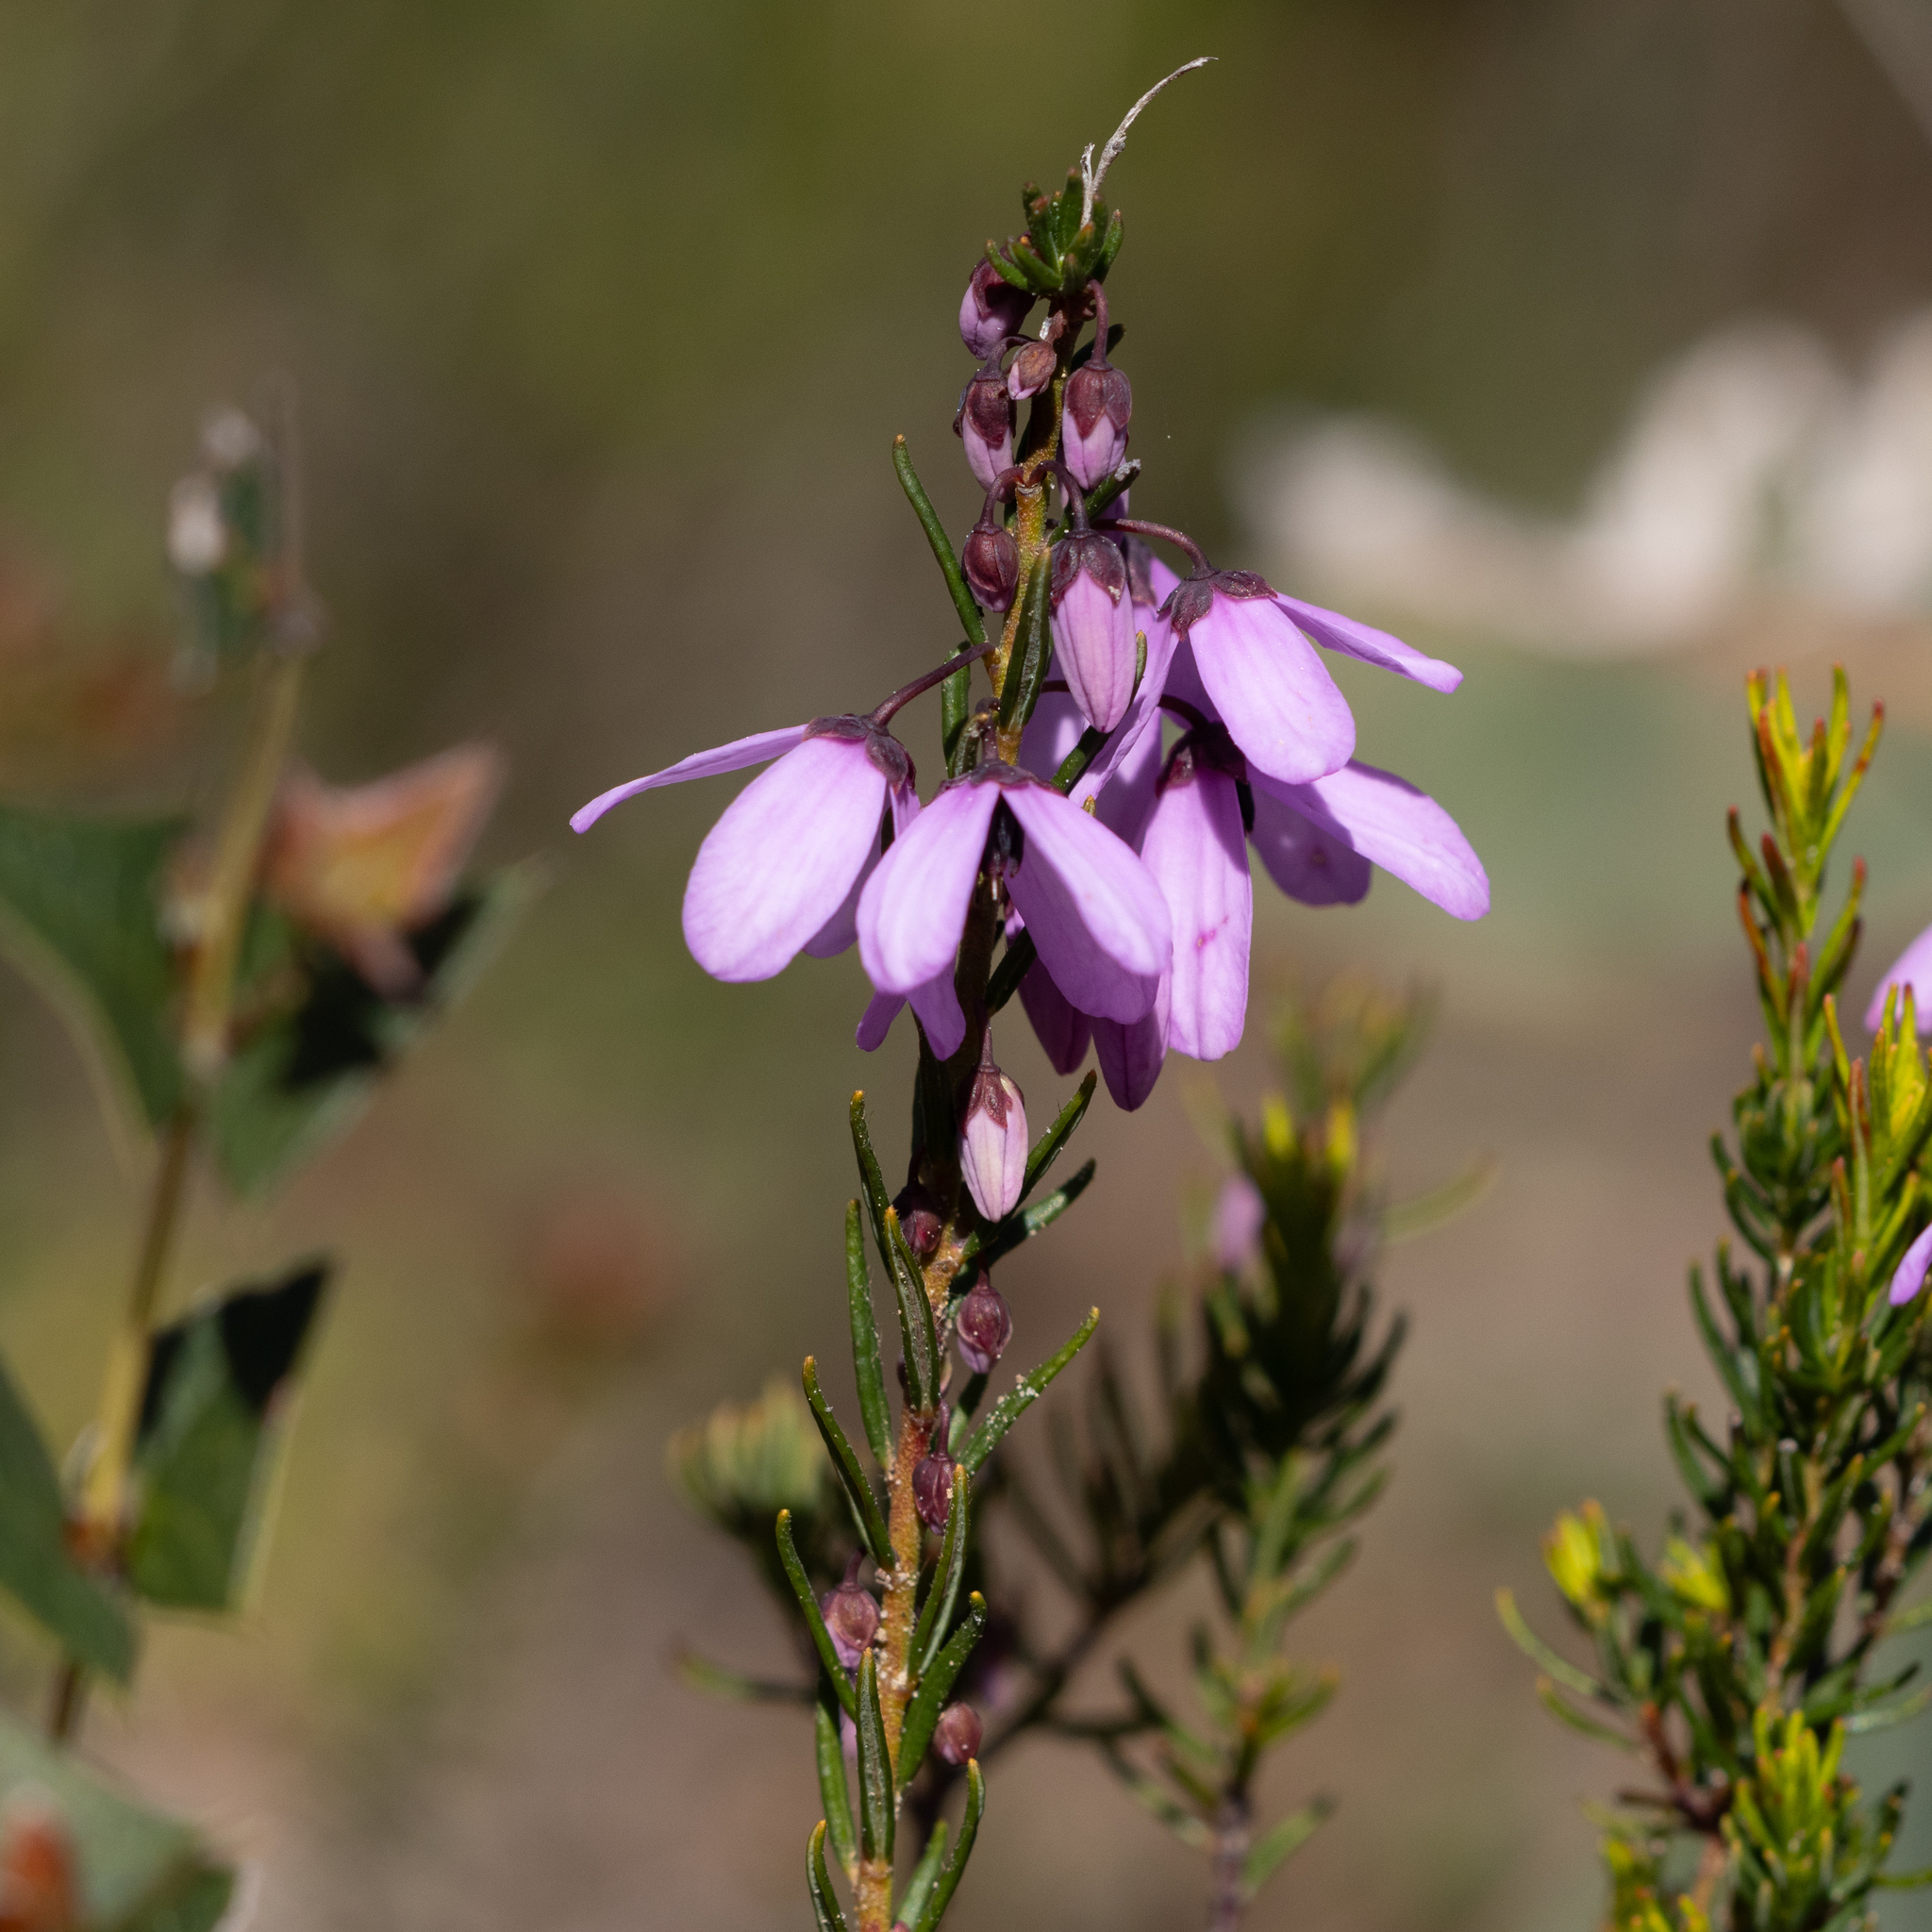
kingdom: Plantae
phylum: Tracheophyta
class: Magnoliopsida
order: Oxalidales
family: Elaeocarpaceae
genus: Tetratheca
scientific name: Tetratheca pilosa
